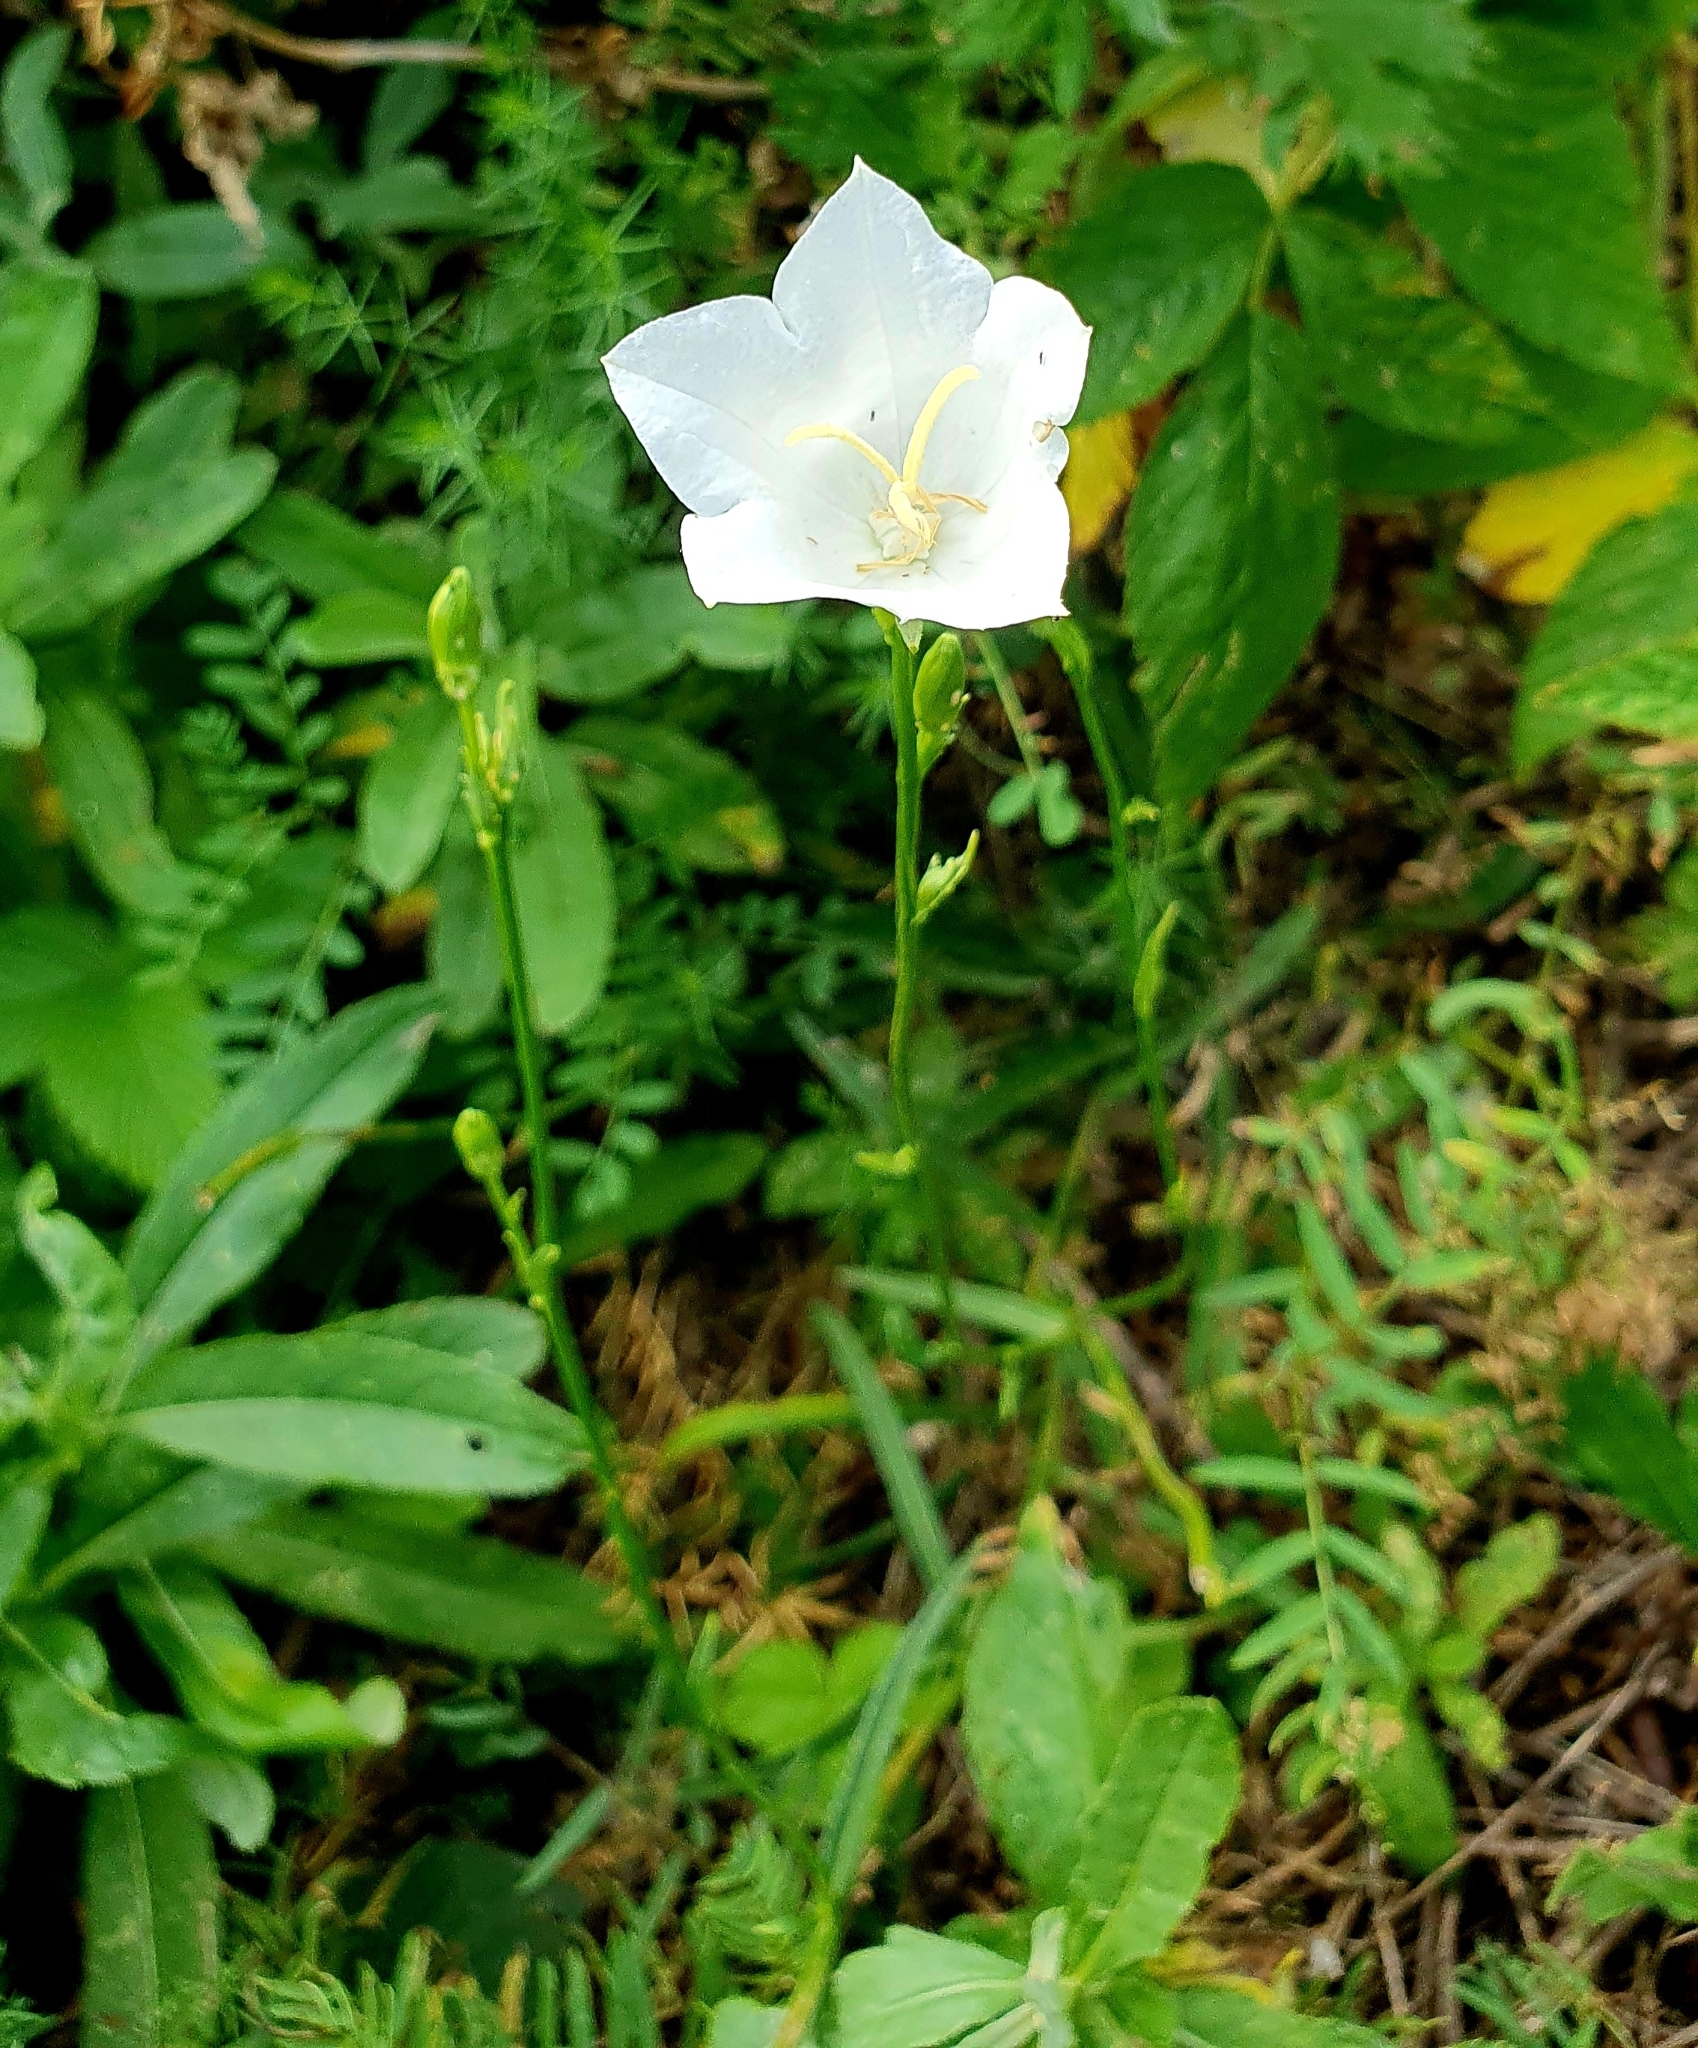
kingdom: Plantae
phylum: Tracheophyta
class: Magnoliopsida
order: Asterales
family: Campanulaceae
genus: Campanula
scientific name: Campanula persicifolia
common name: Peach-leaved bellflower
